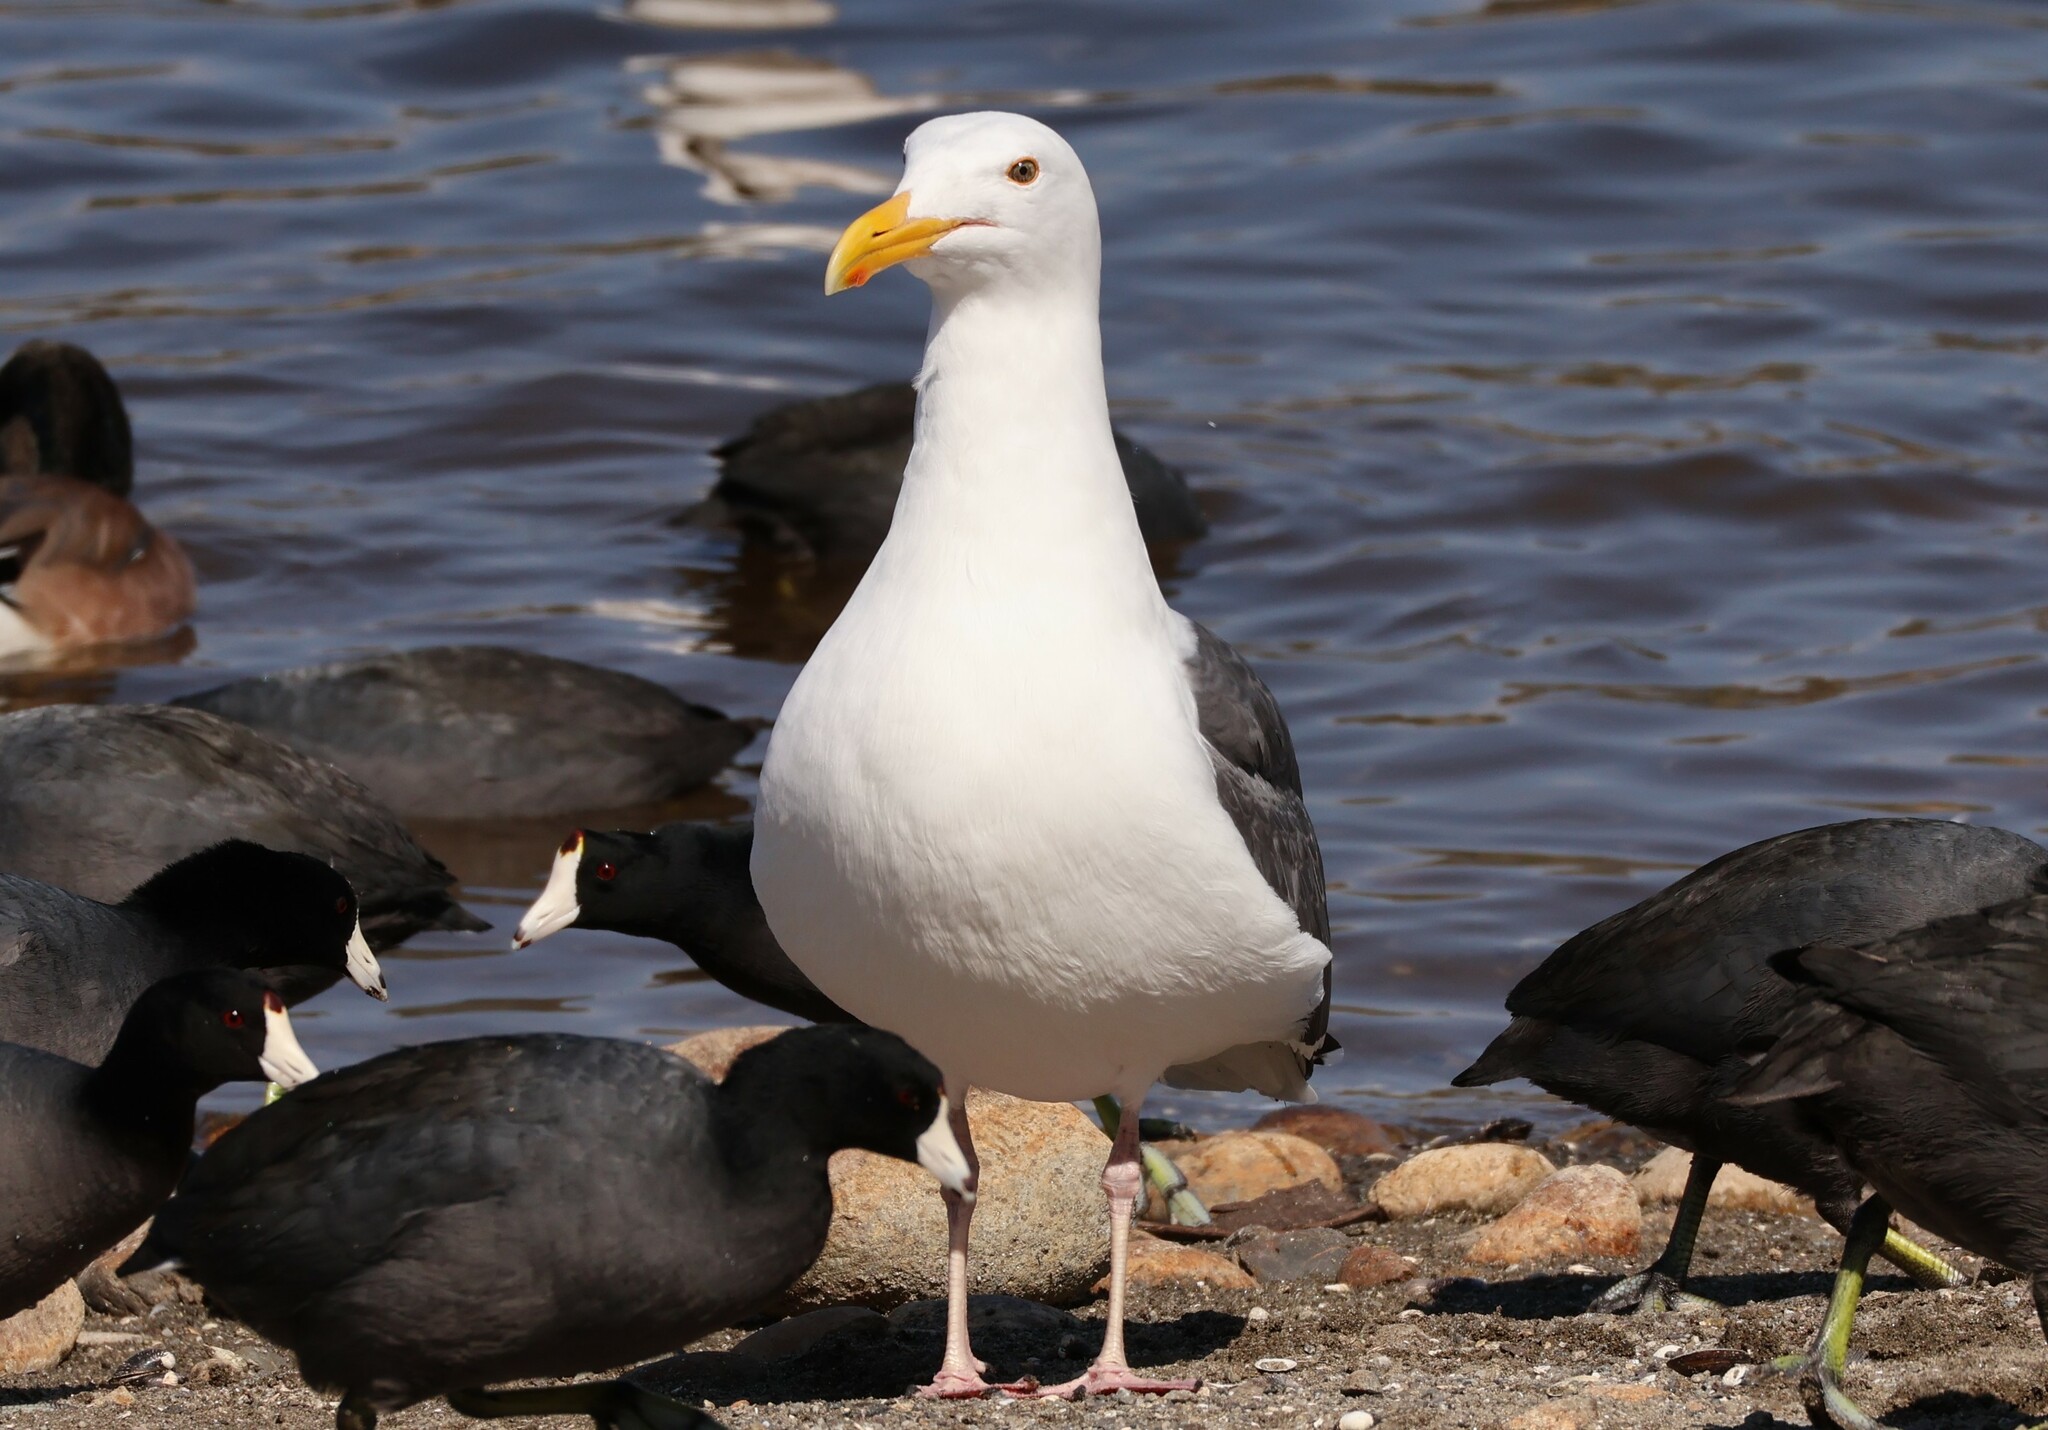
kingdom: Animalia
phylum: Chordata
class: Aves
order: Charadriiformes
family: Laridae
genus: Larus
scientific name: Larus occidentalis
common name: Western gull
